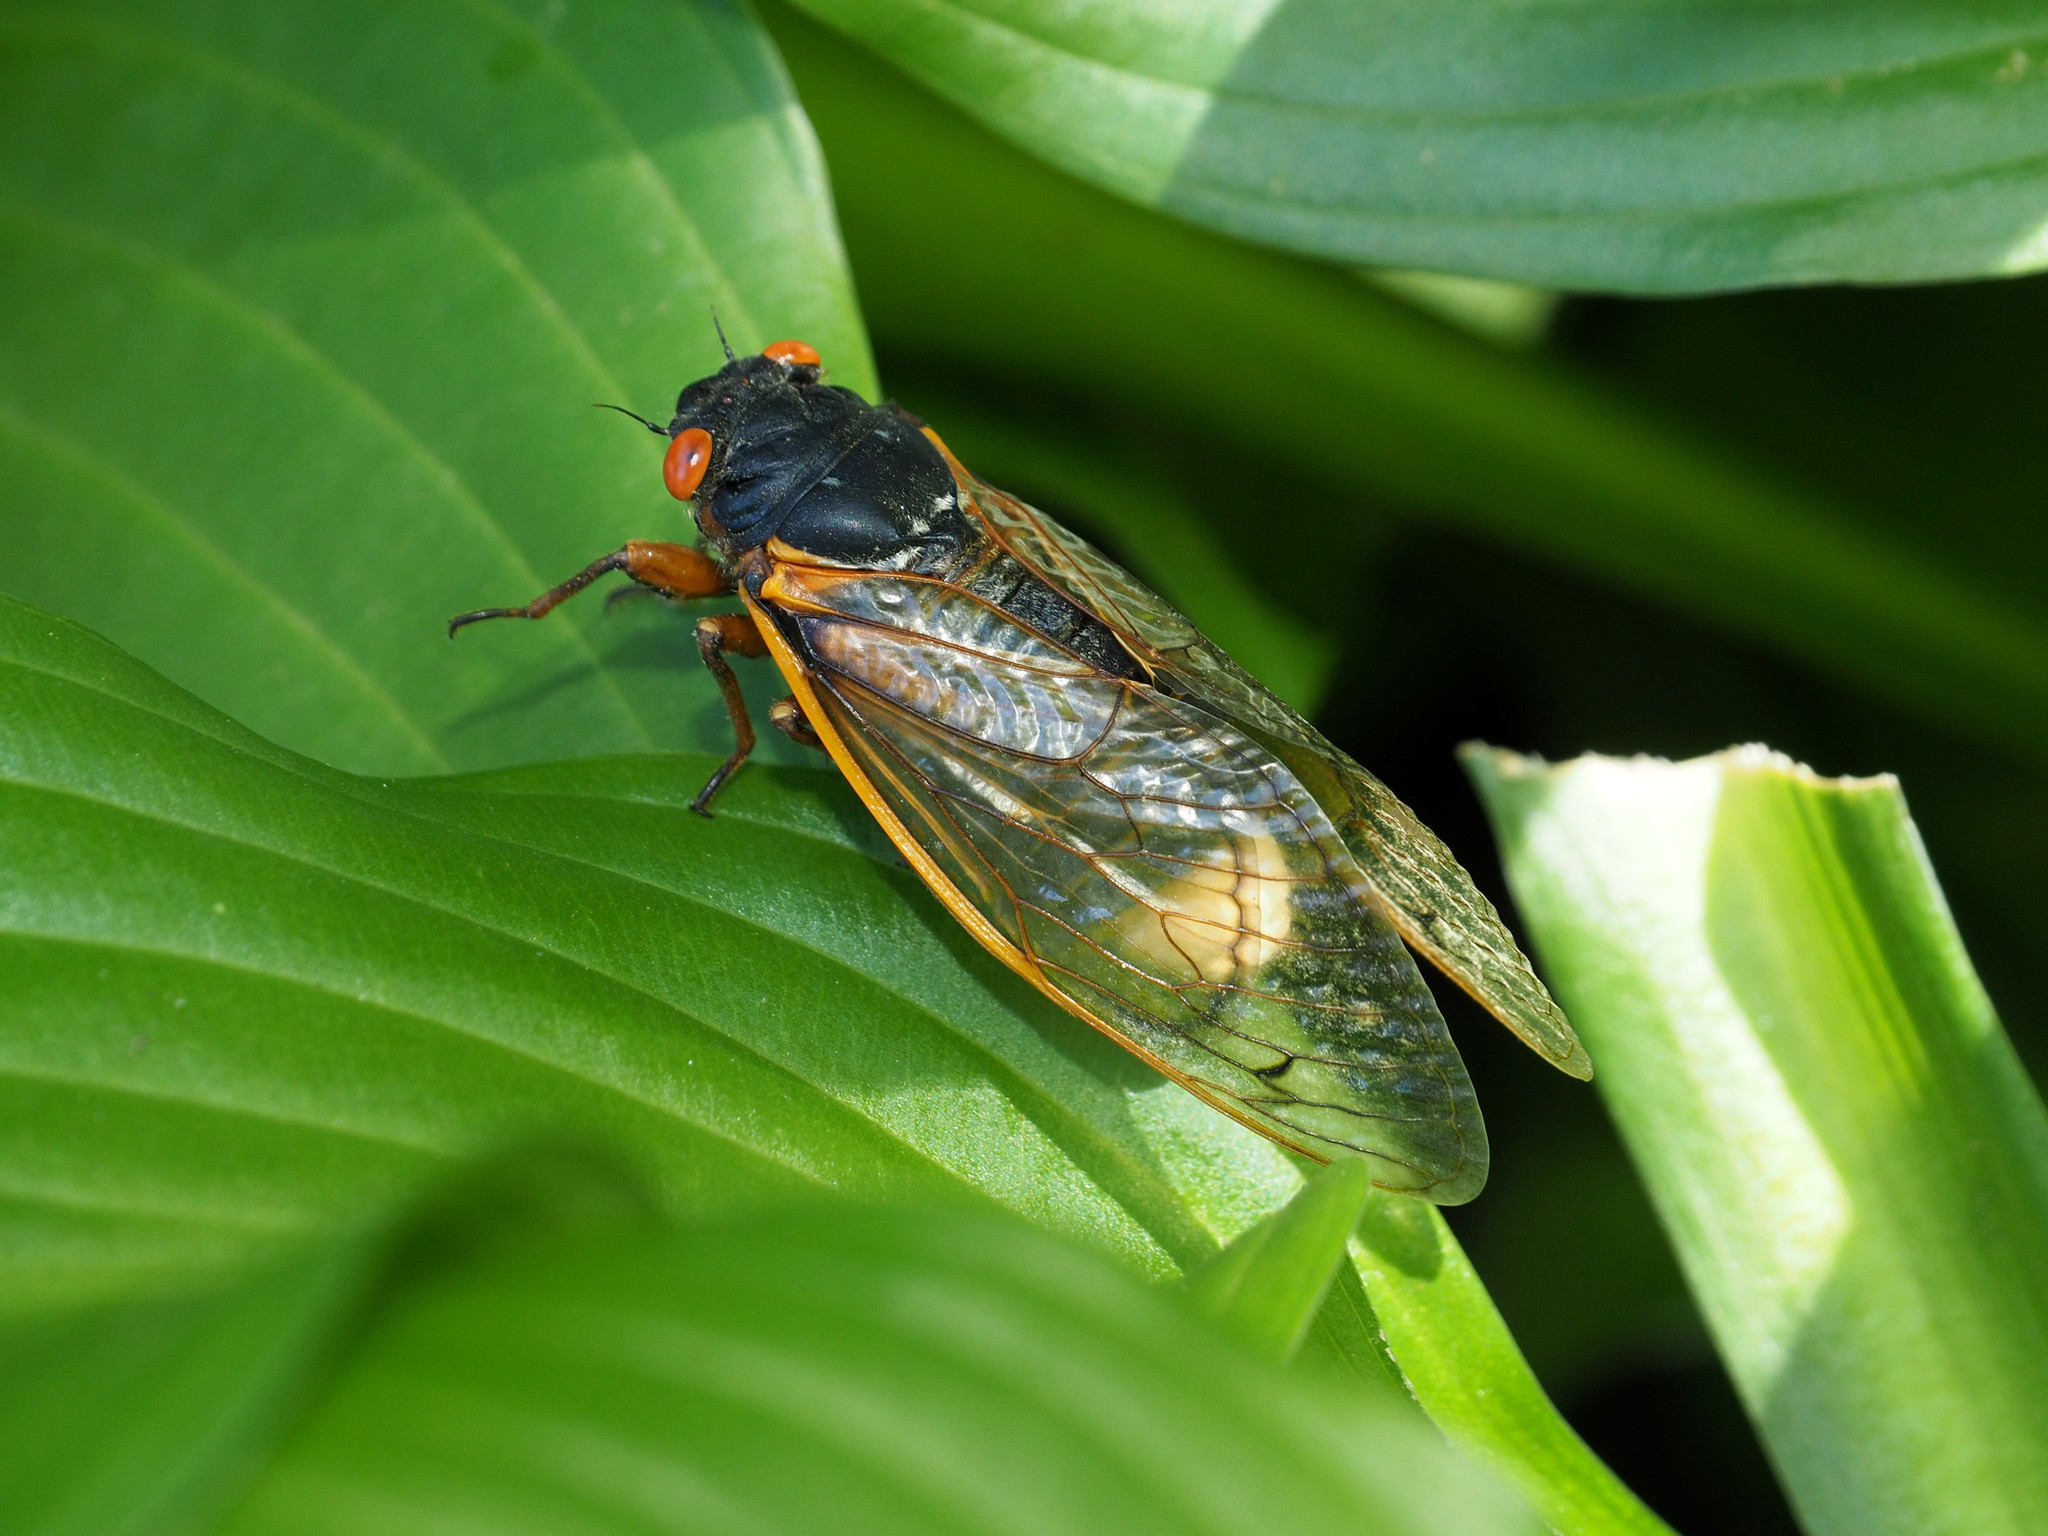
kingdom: Fungi
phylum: Entomophthoromycota
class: Entomophthoromycetes
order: Entomophthorales
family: Entomophthoraceae
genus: Massospora
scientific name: Massospora cicadina
